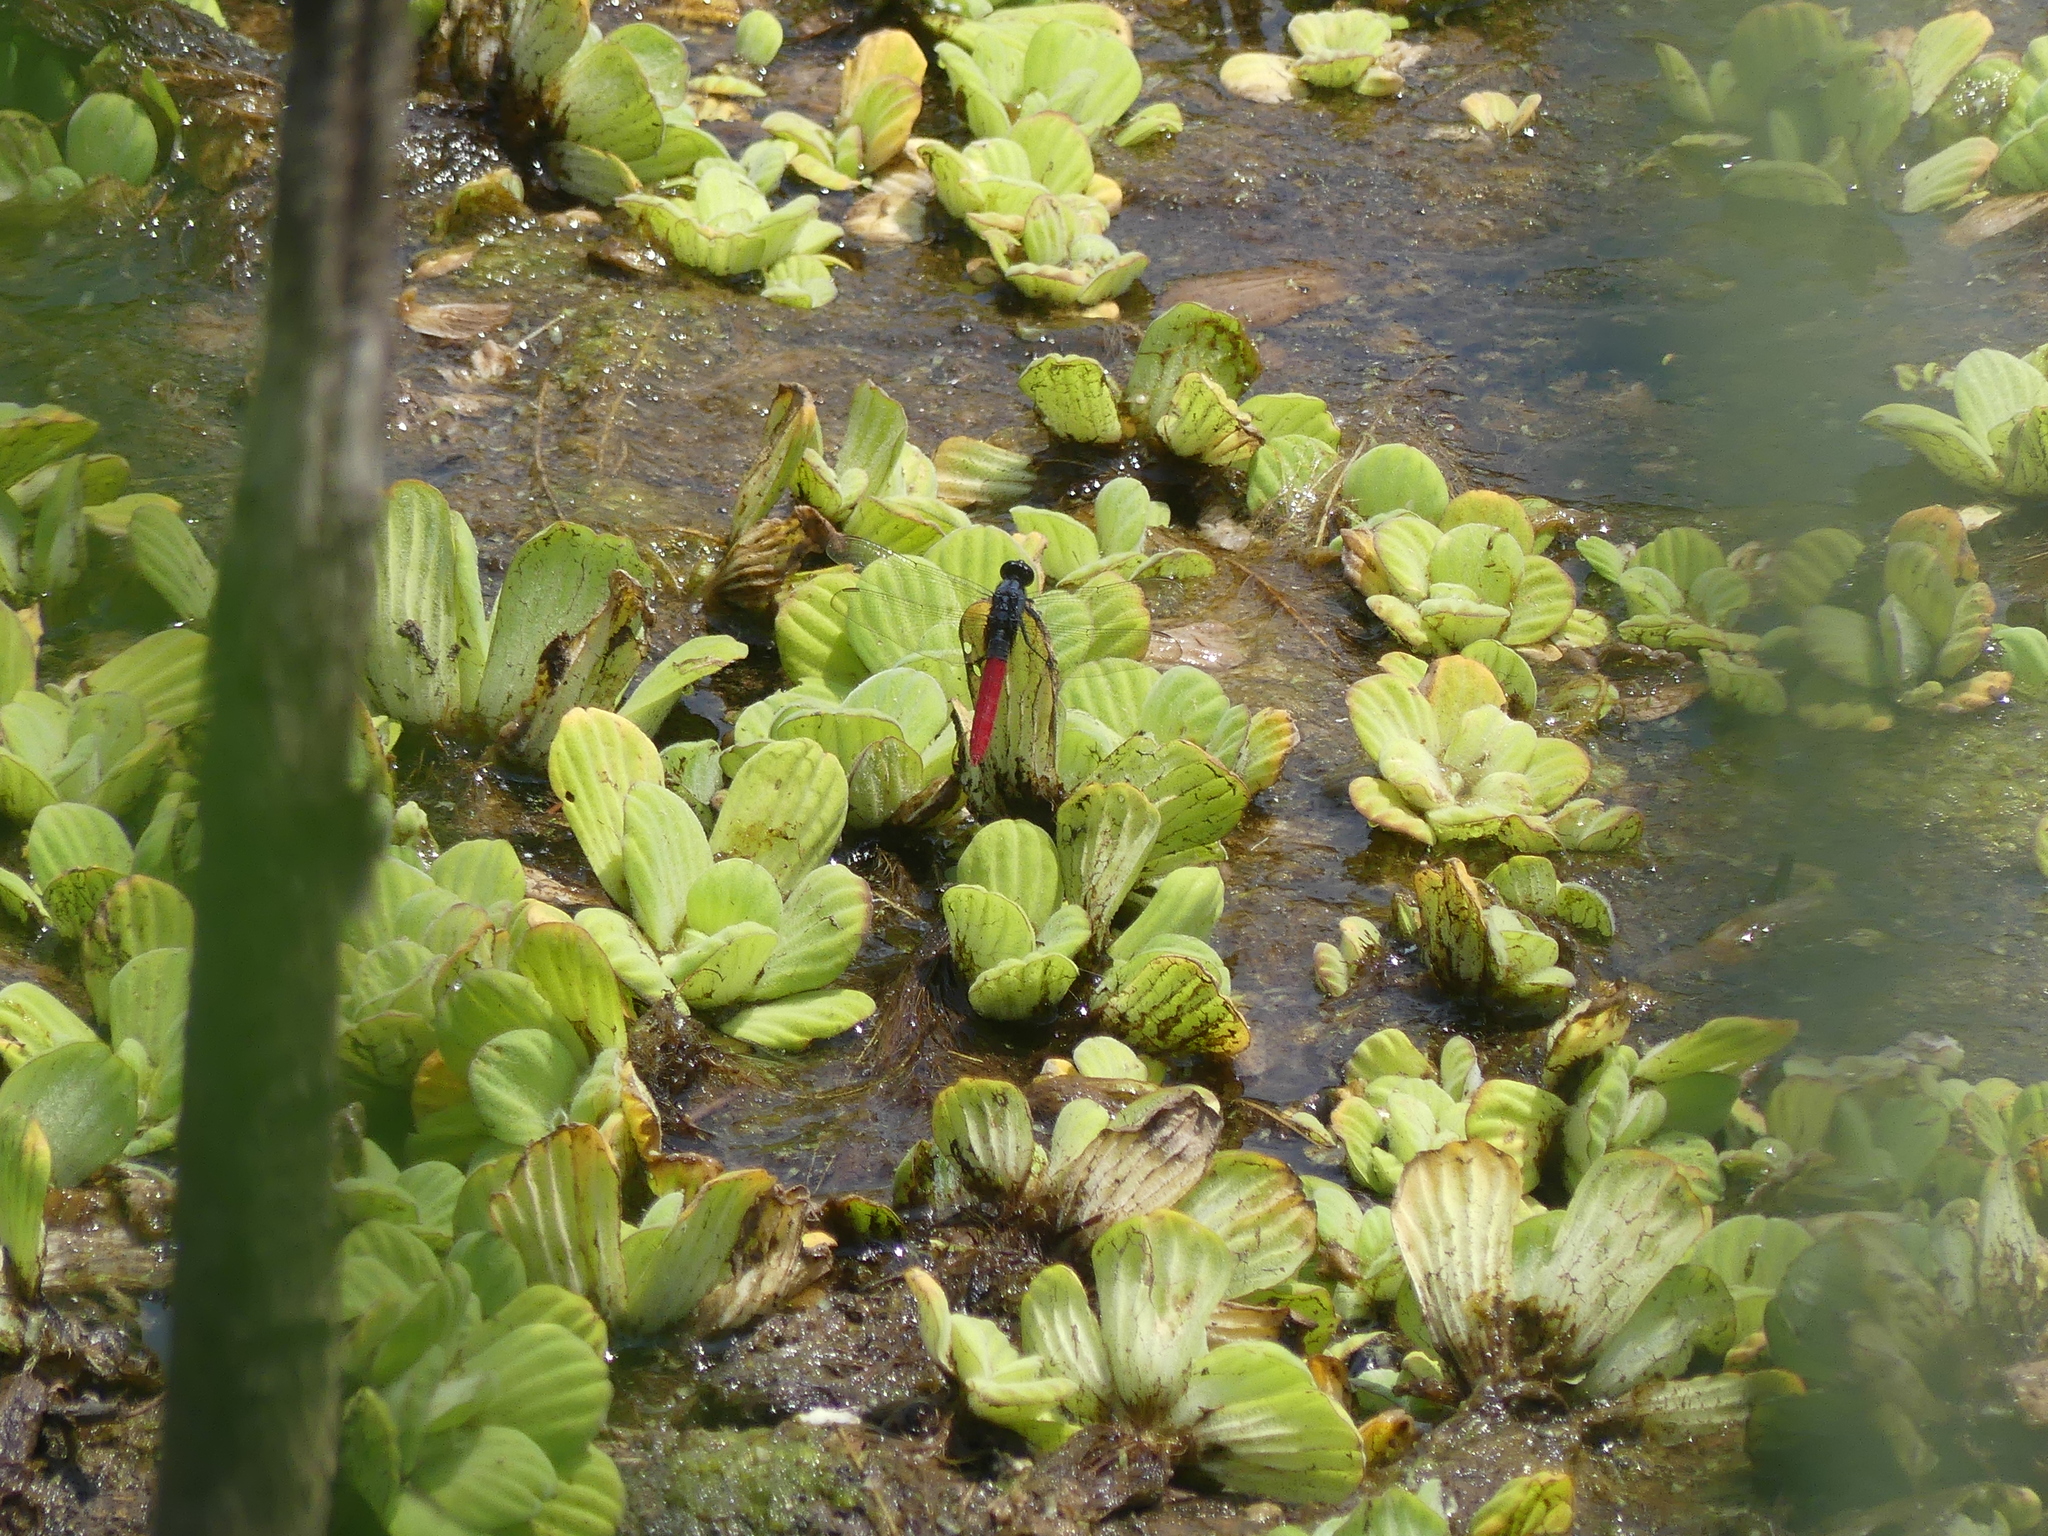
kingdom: Plantae
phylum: Tracheophyta
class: Liliopsida
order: Alismatales
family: Araceae
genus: Pistia
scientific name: Pistia stratiotes
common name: Water lettuce
